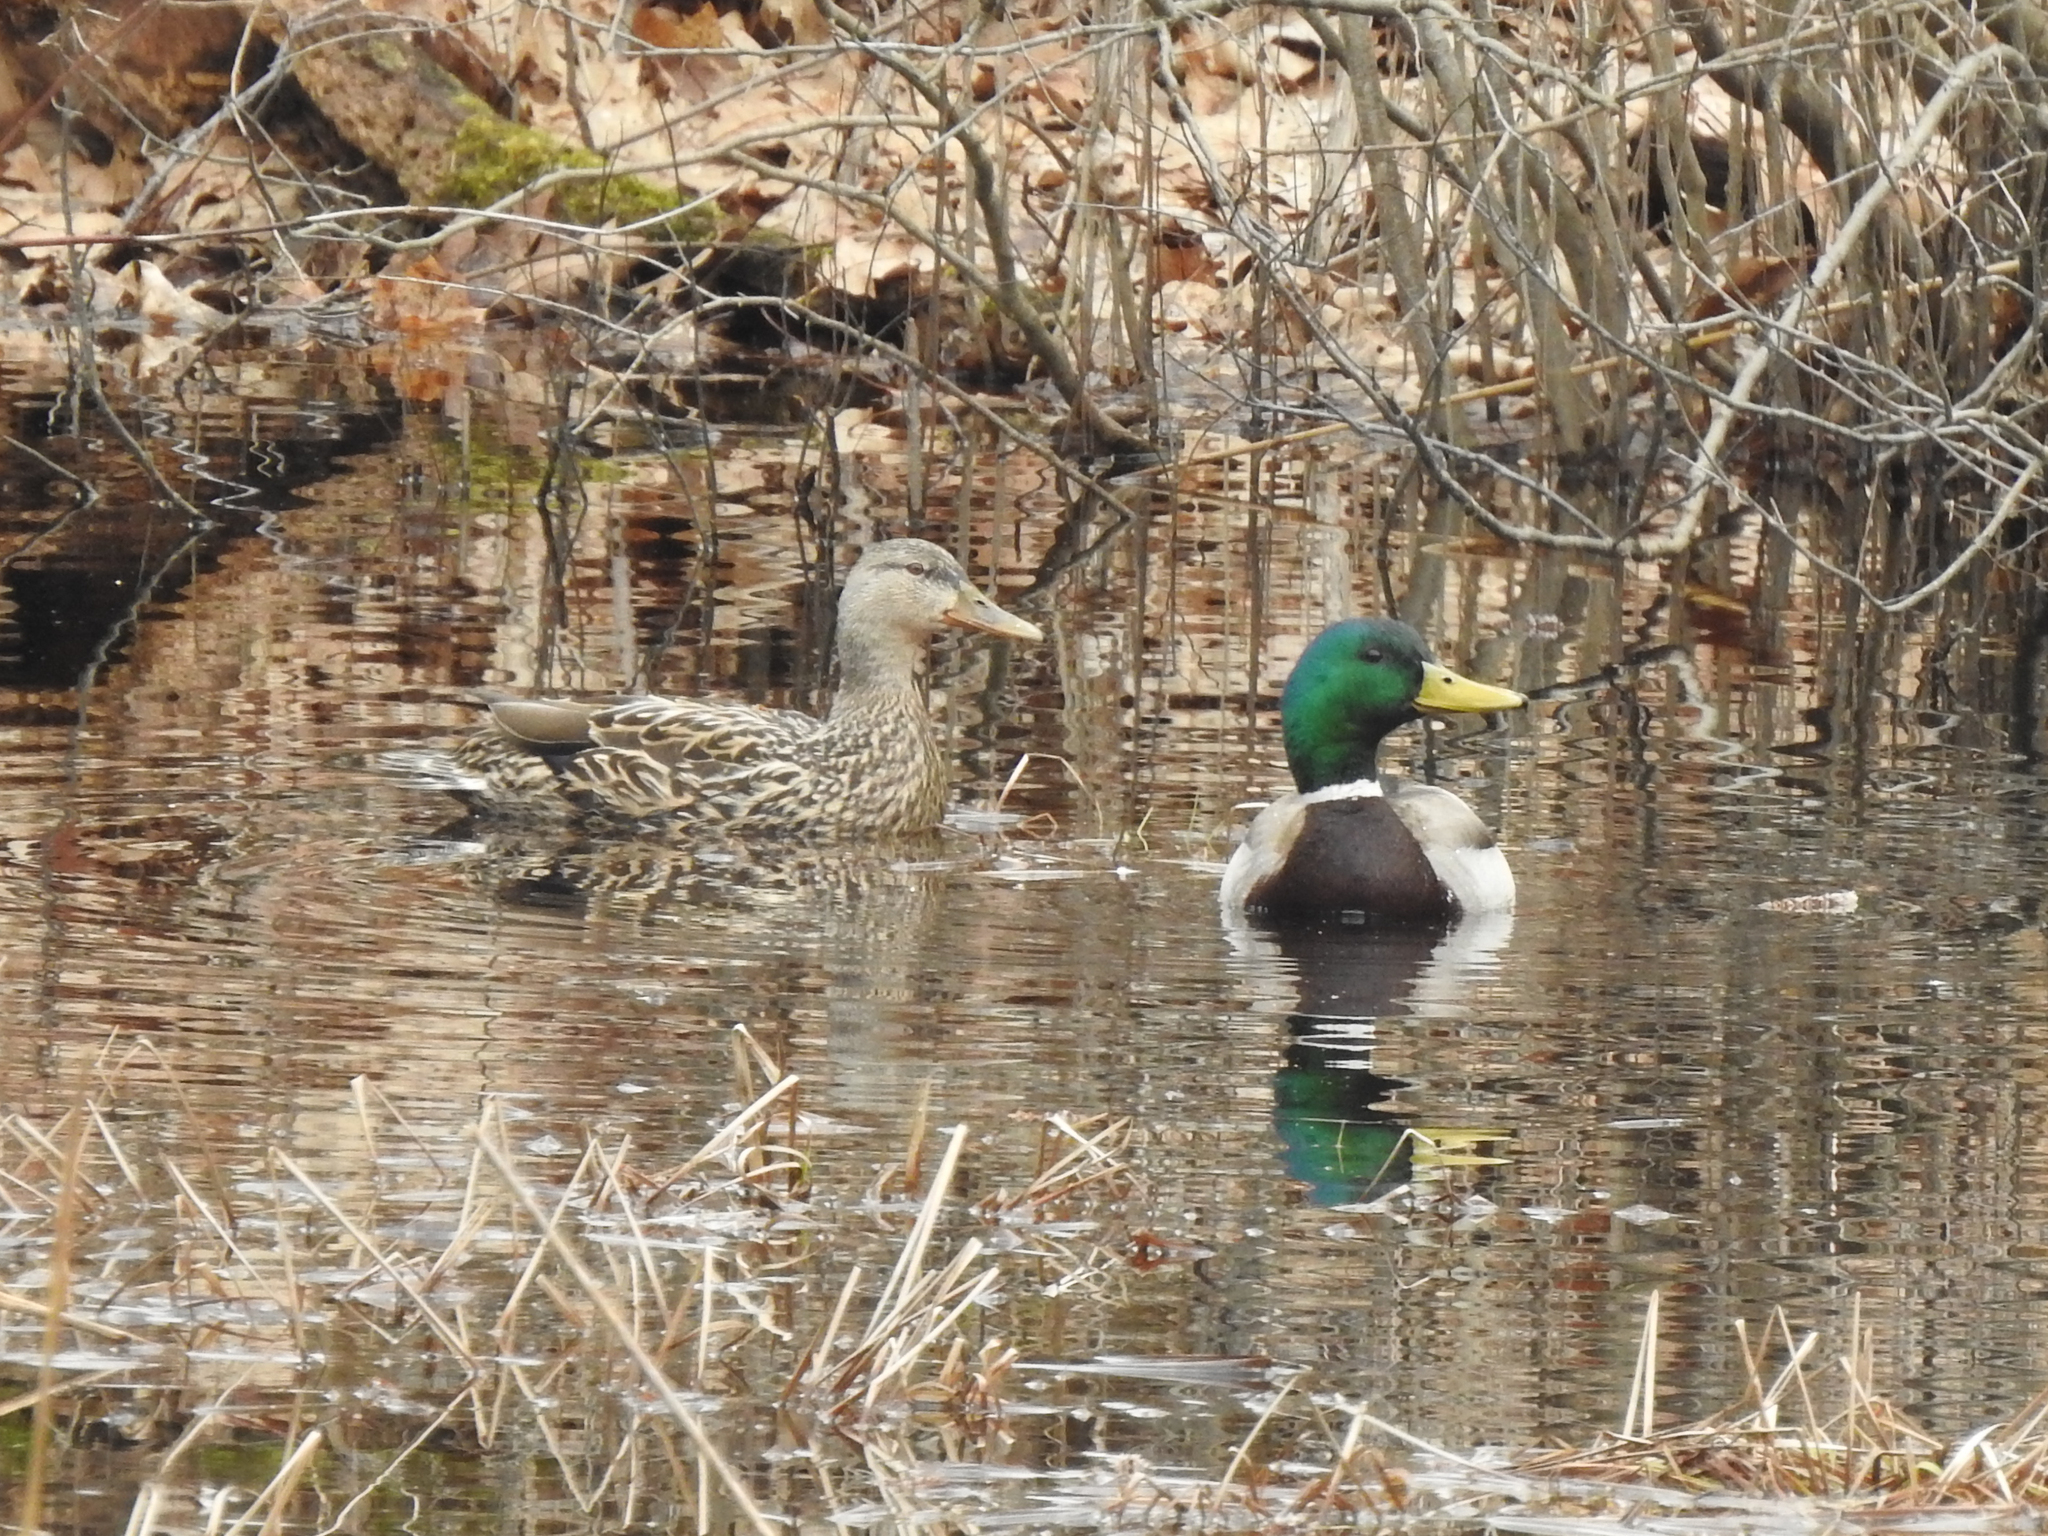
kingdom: Animalia
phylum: Chordata
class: Aves
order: Anseriformes
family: Anatidae
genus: Anas
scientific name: Anas platyrhynchos
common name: Mallard
